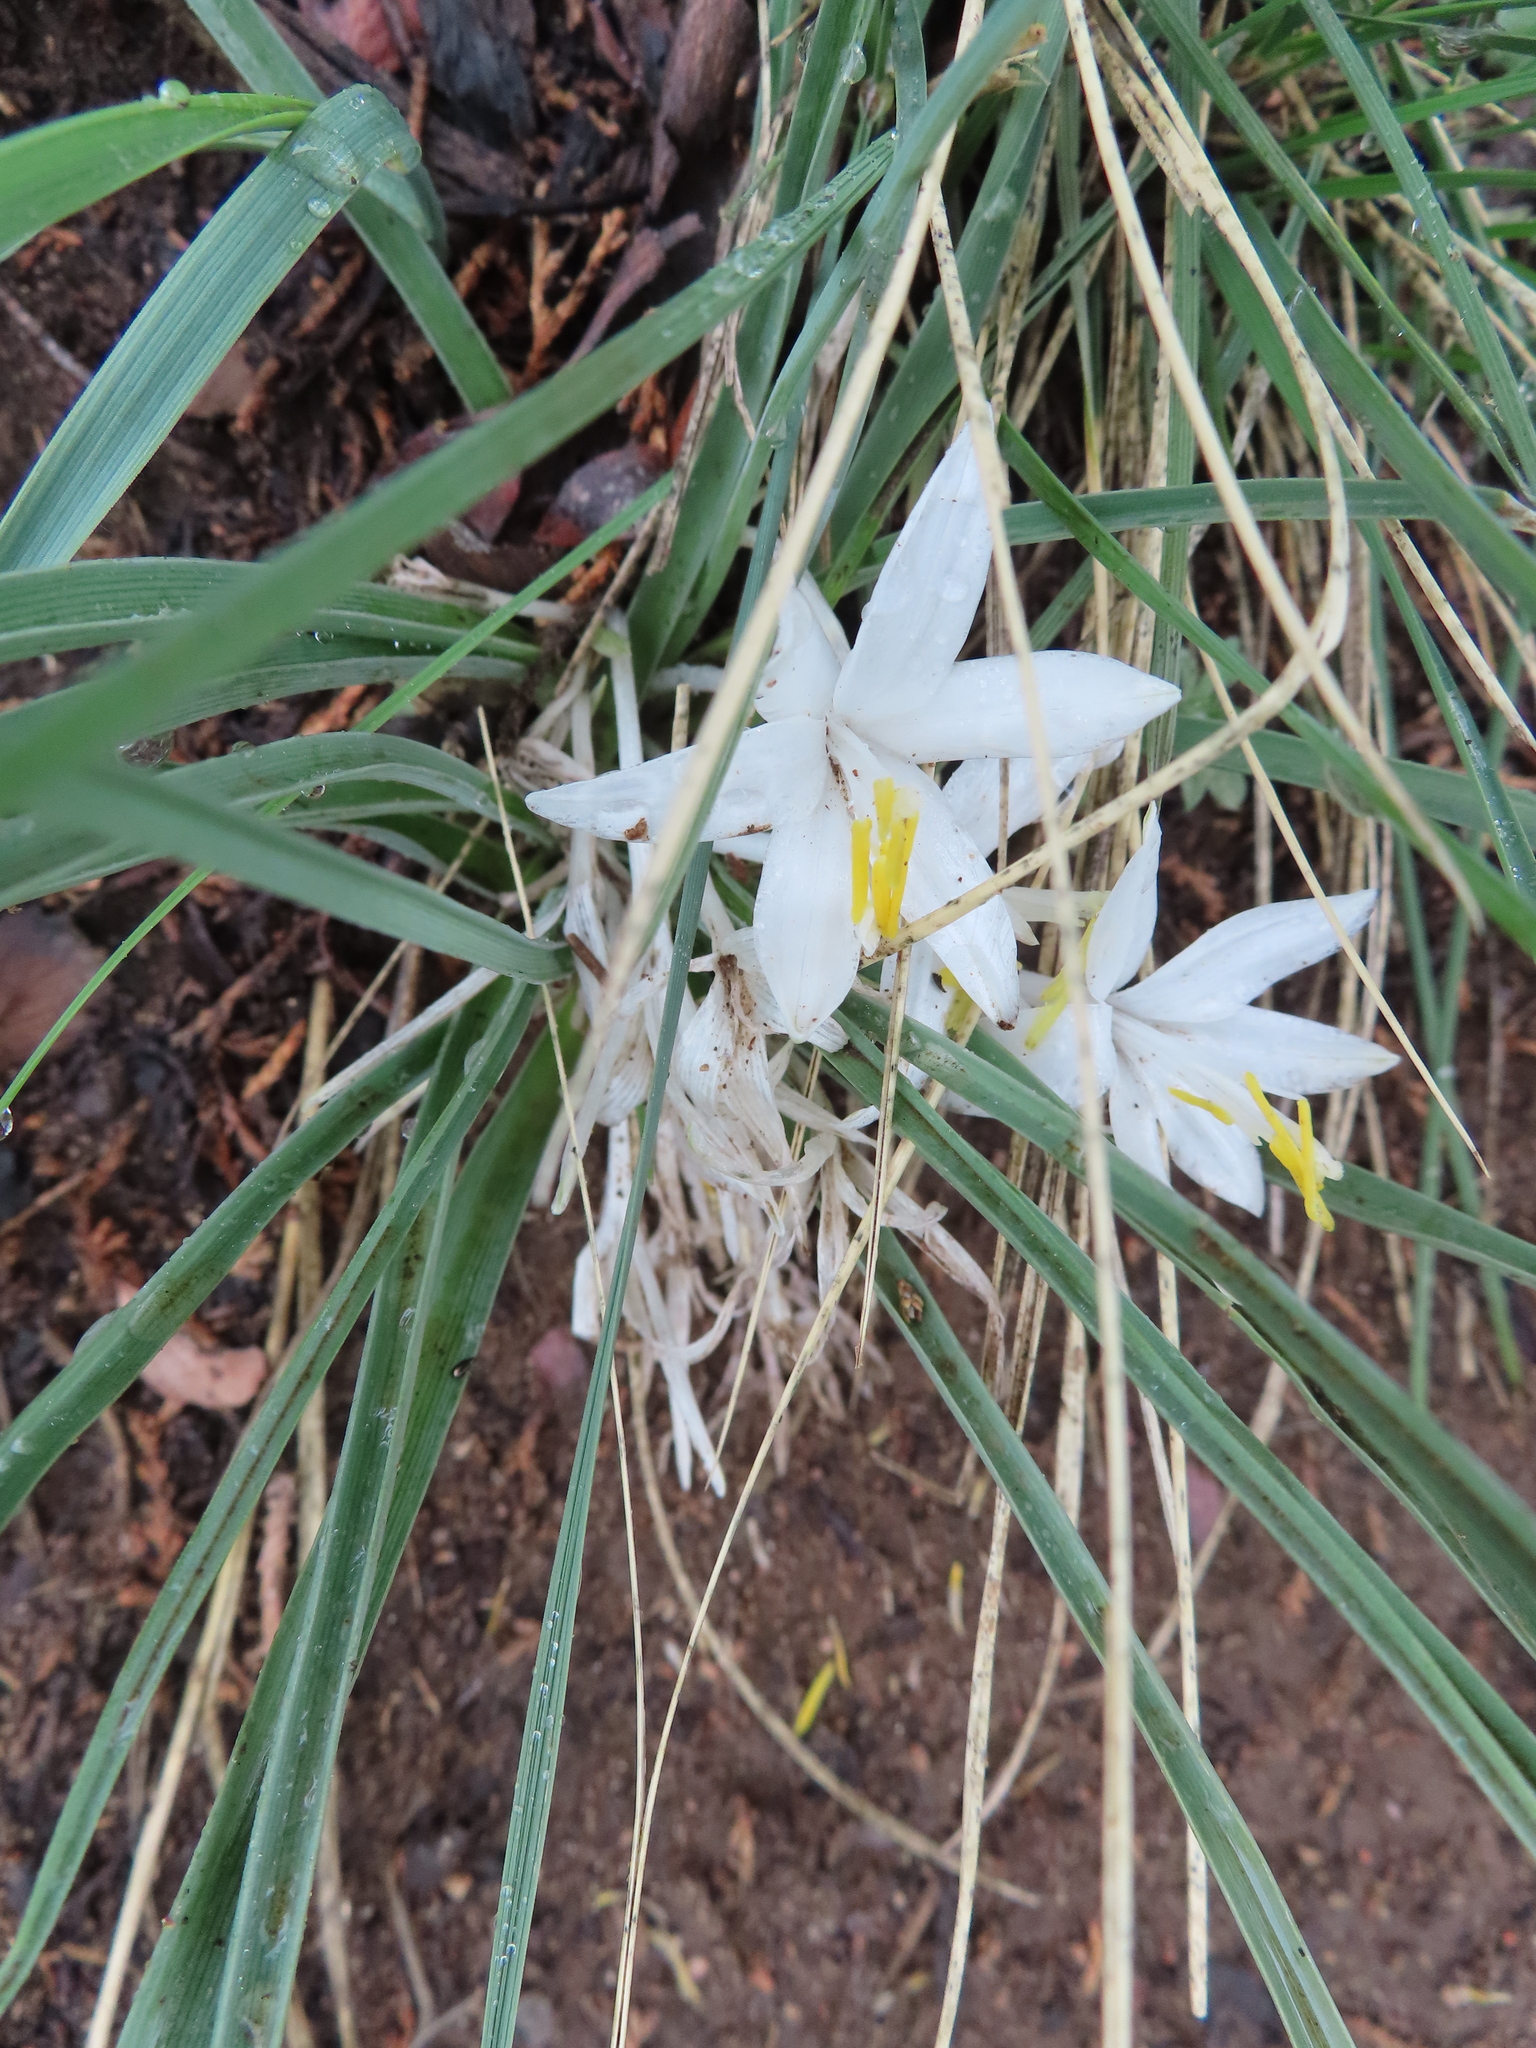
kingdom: Plantae
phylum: Tracheophyta
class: Liliopsida
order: Asparagales
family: Asparagaceae
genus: Leucocrinum
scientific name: Leucocrinum montanum
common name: Mountain-lily
